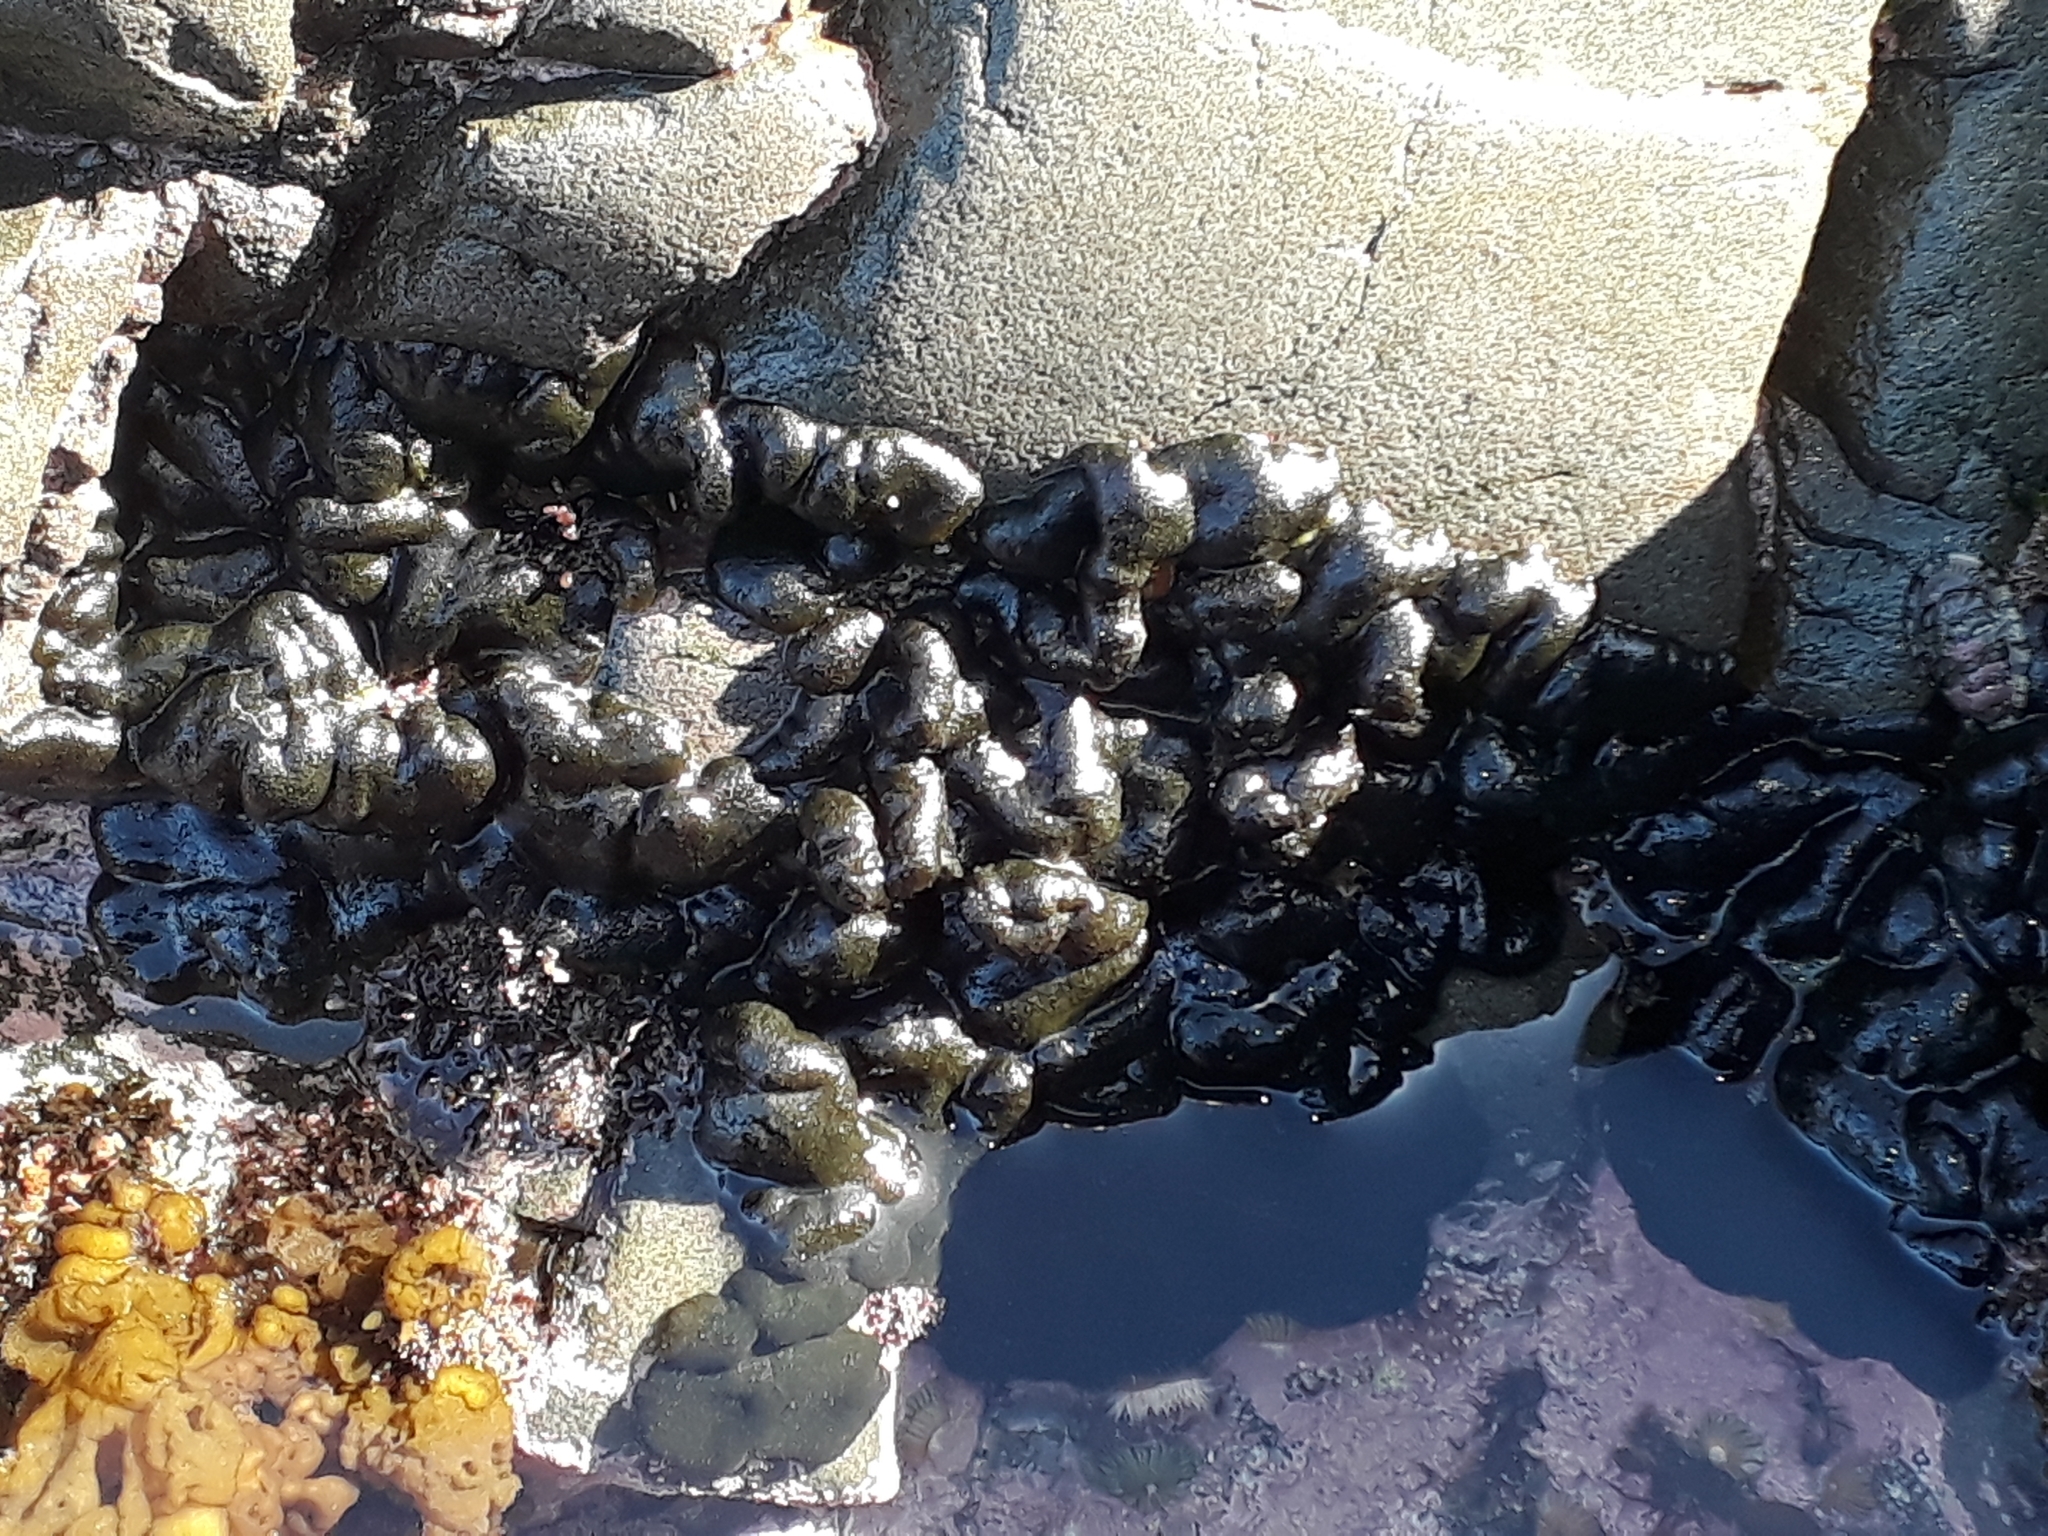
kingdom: Plantae
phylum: Chlorophyta
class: Ulvophyceae
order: Bryopsidales
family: Codiaceae
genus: Codium
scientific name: Codium convolutum
